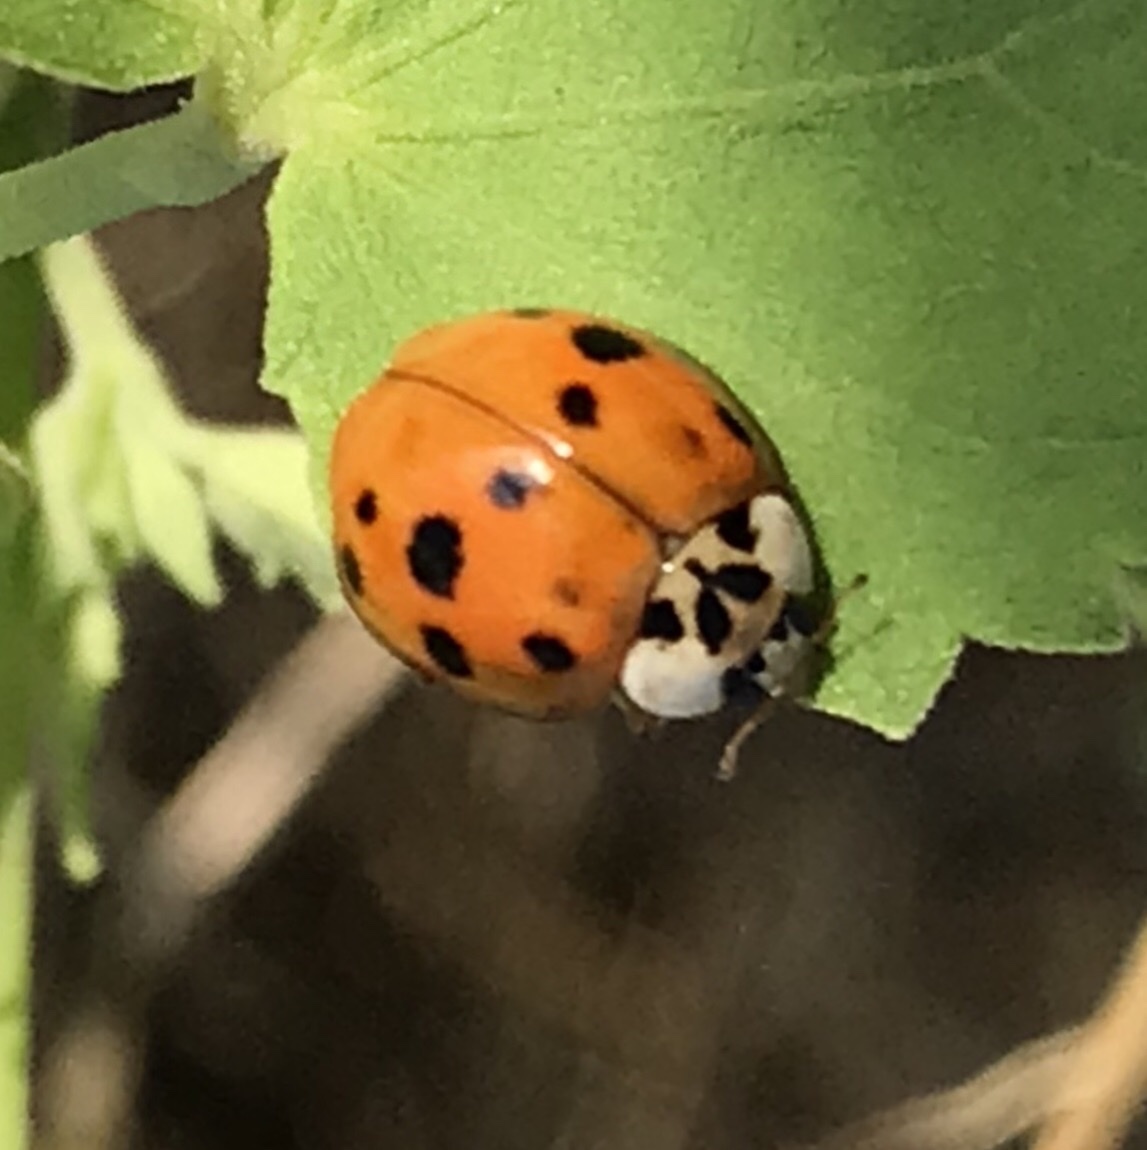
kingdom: Animalia
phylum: Arthropoda
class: Insecta
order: Coleoptera
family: Coccinellidae
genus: Harmonia
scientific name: Harmonia axyridis
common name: Harlequin ladybird
